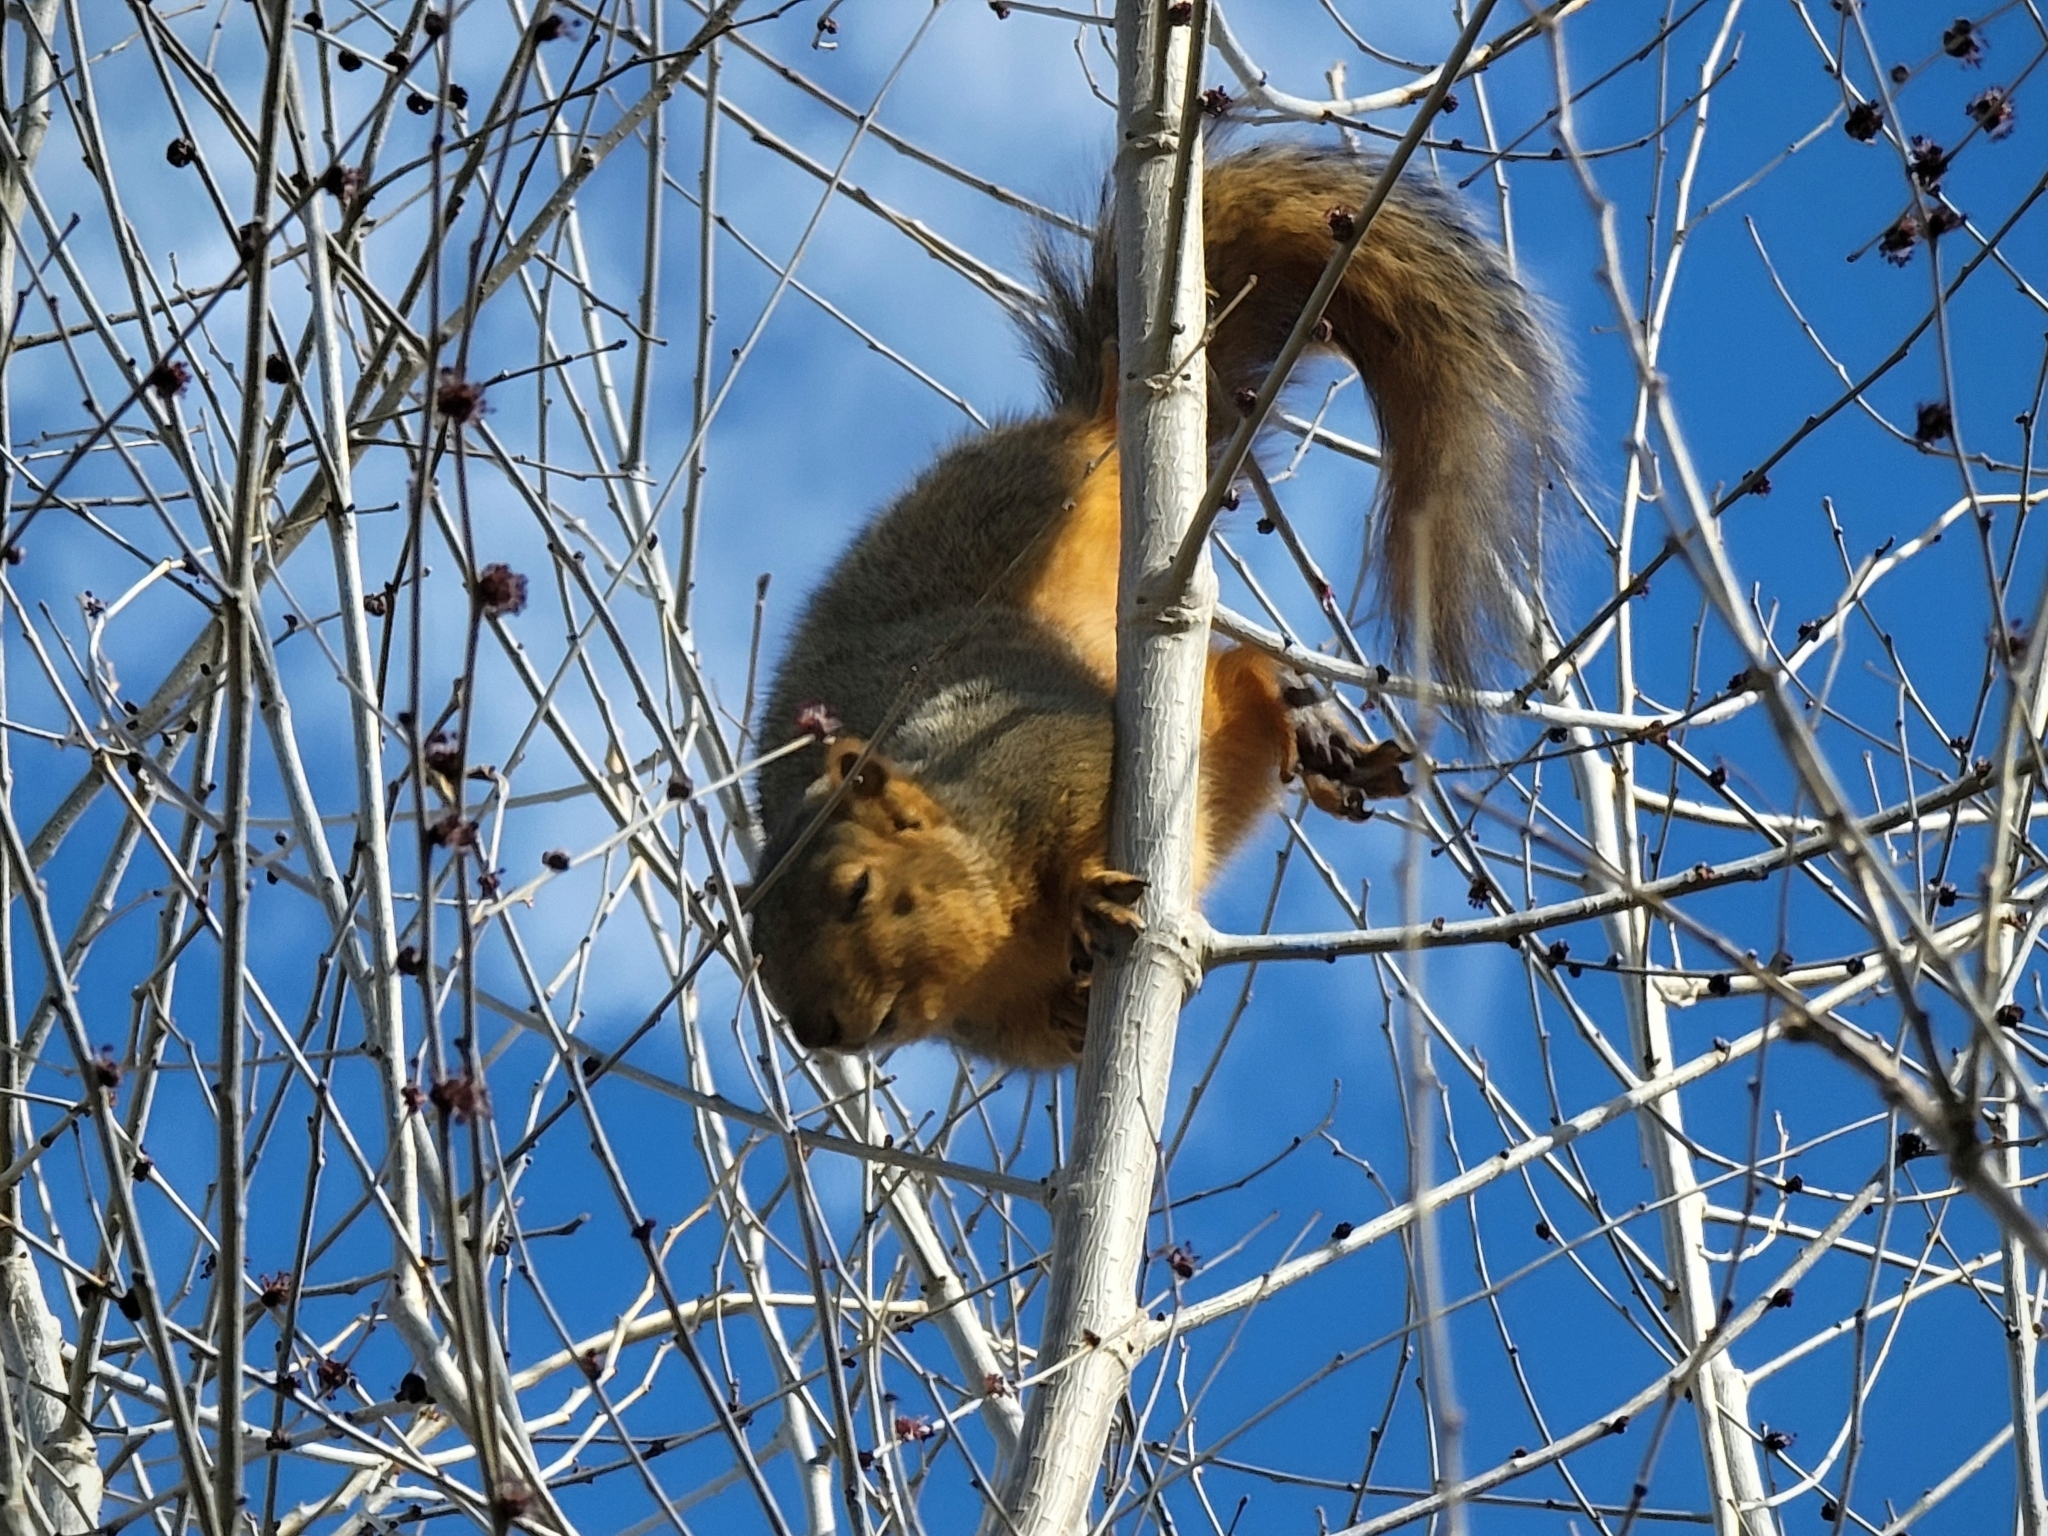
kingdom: Animalia
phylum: Chordata
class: Mammalia
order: Rodentia
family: Sciuridae
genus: Sciurus
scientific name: Sciurus niger
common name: Fox squirrel
